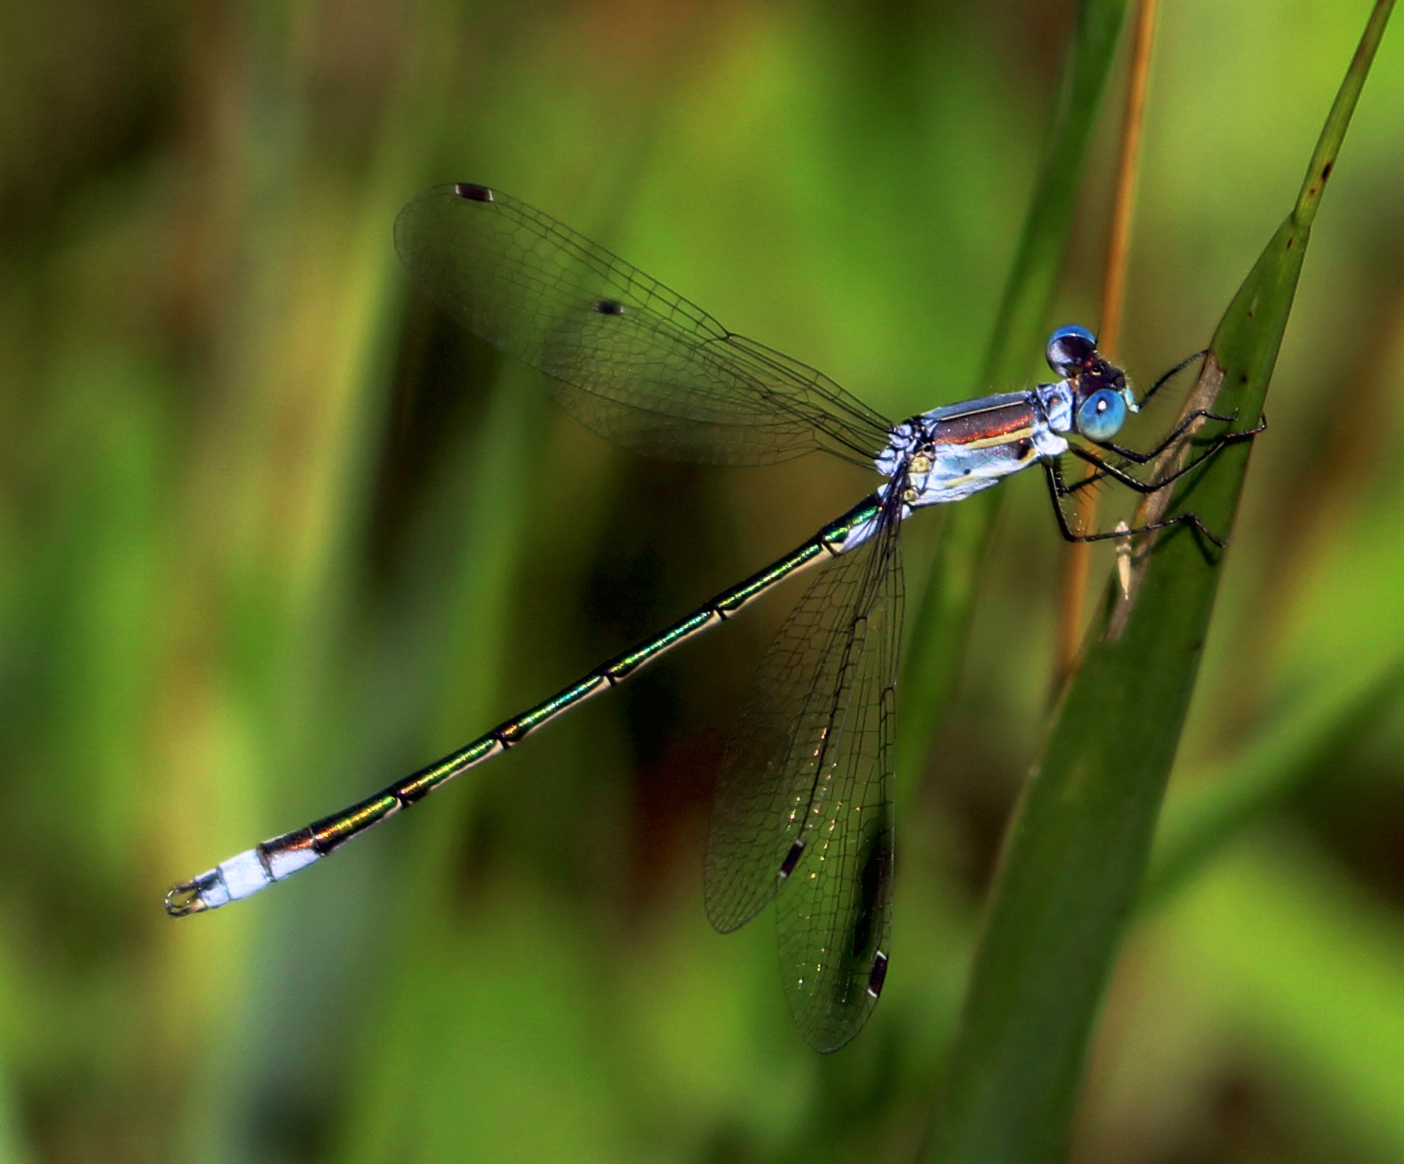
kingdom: Animalia
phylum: Arthropoda
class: Insecta
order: Odonata
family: Lestidae
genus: Lestes
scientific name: Lestes unguiculatus
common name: Lyre-tipped spreadwing
